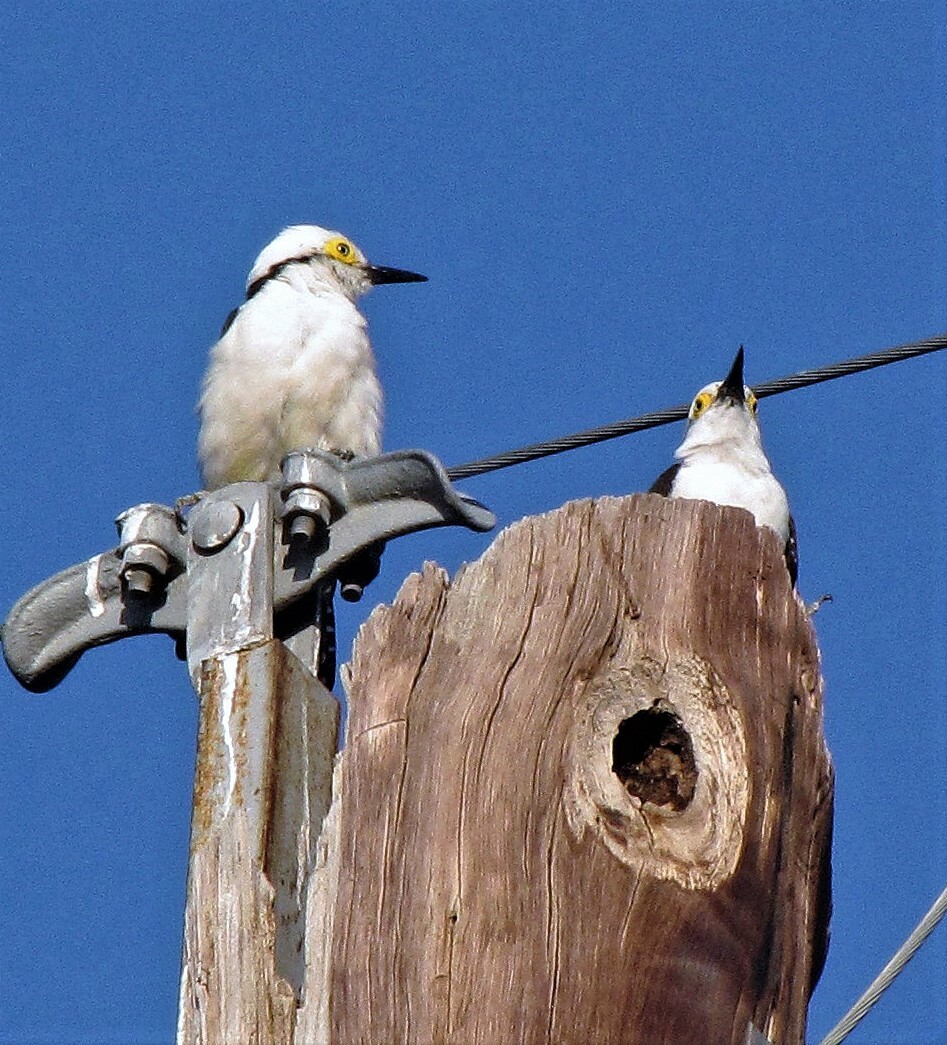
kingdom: Animalia
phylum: Chordata
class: Aves
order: Piciformes
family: Picidae
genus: Melanerpes
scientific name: Melanerpes candidus
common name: White woodpecker
